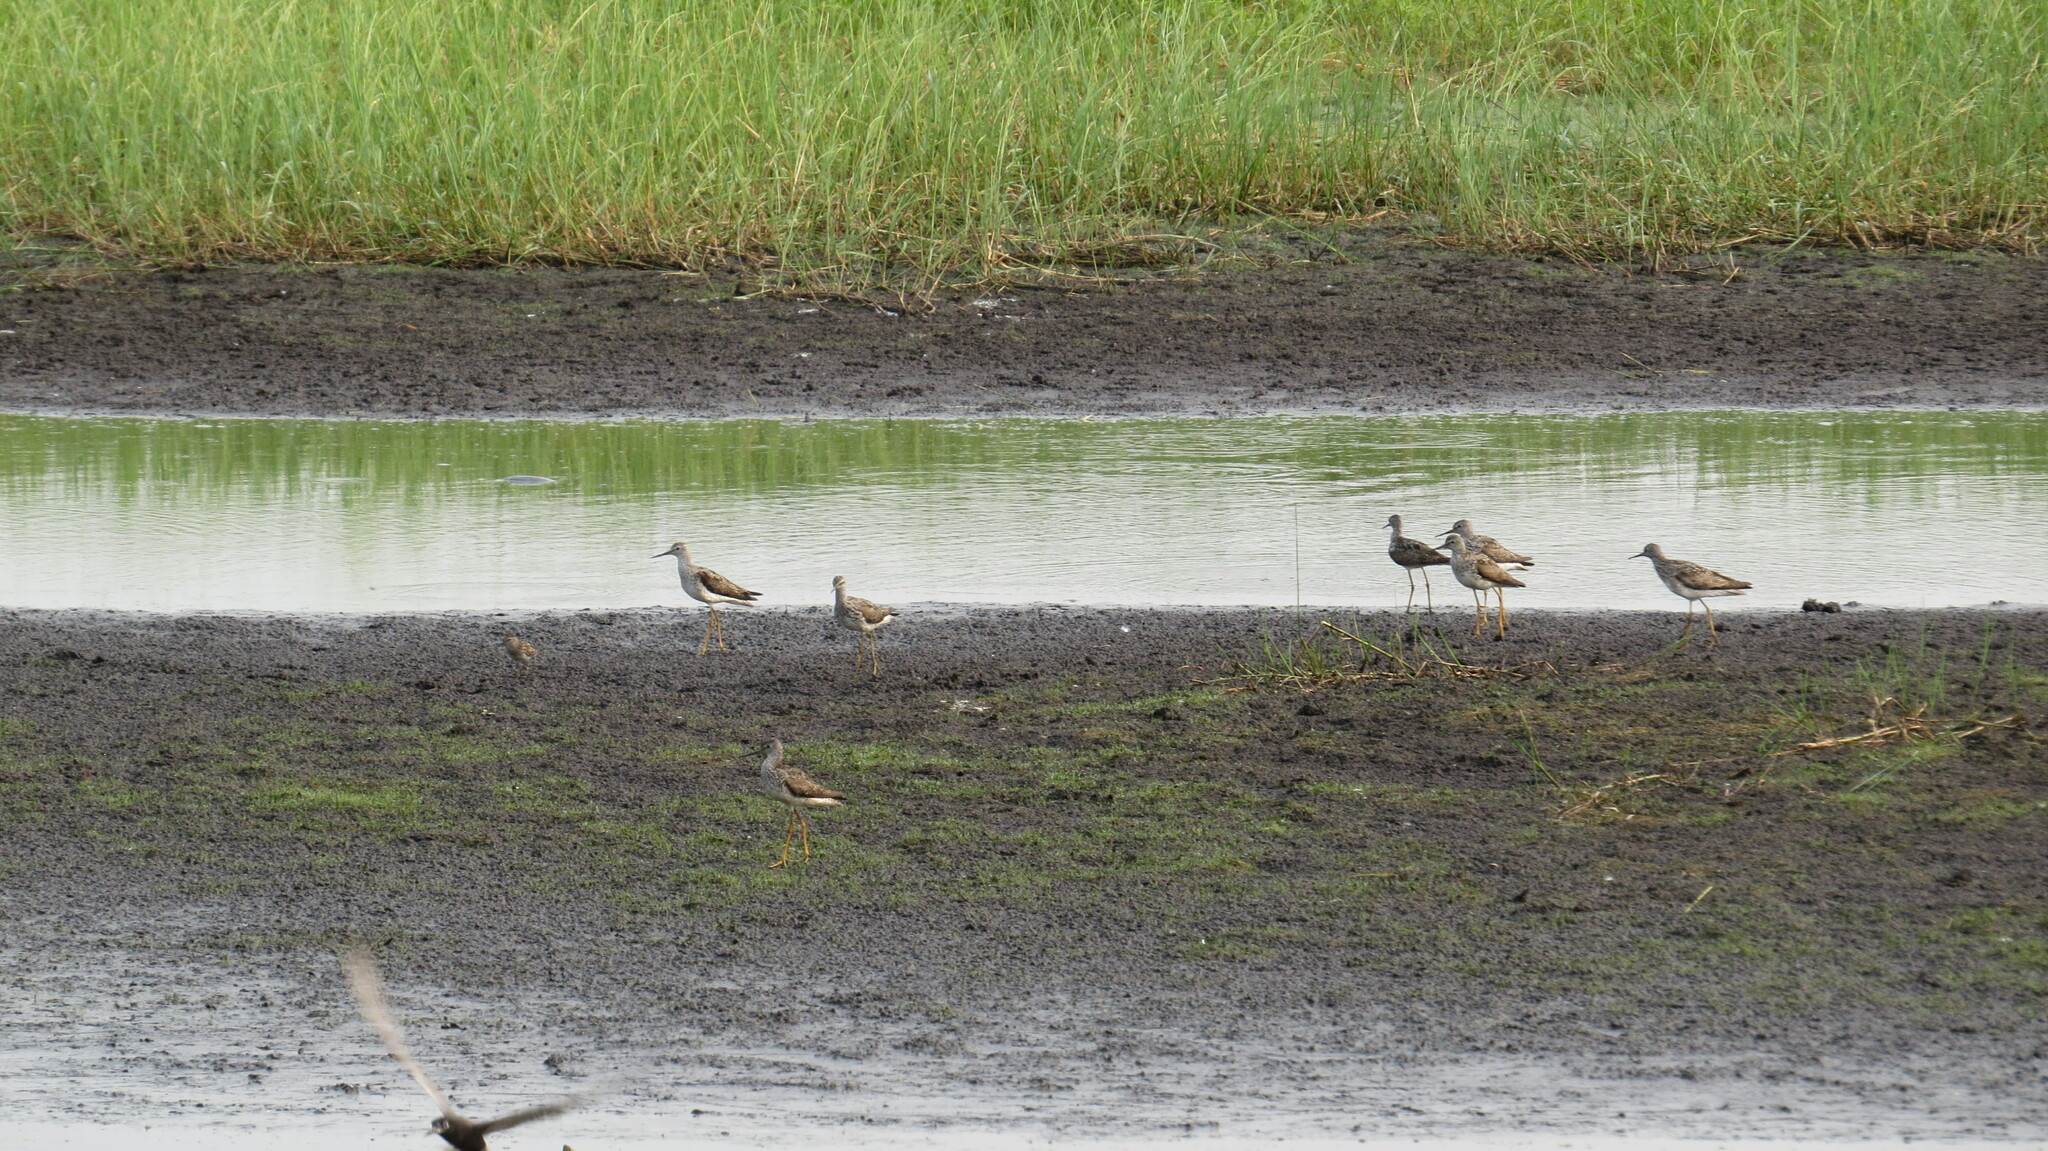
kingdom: Animalia
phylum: Chordata
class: Aves
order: Charadriiformes
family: Scolopacidae
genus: Tringa
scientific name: Tringa flavipes
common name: Lesser yellowlegs
